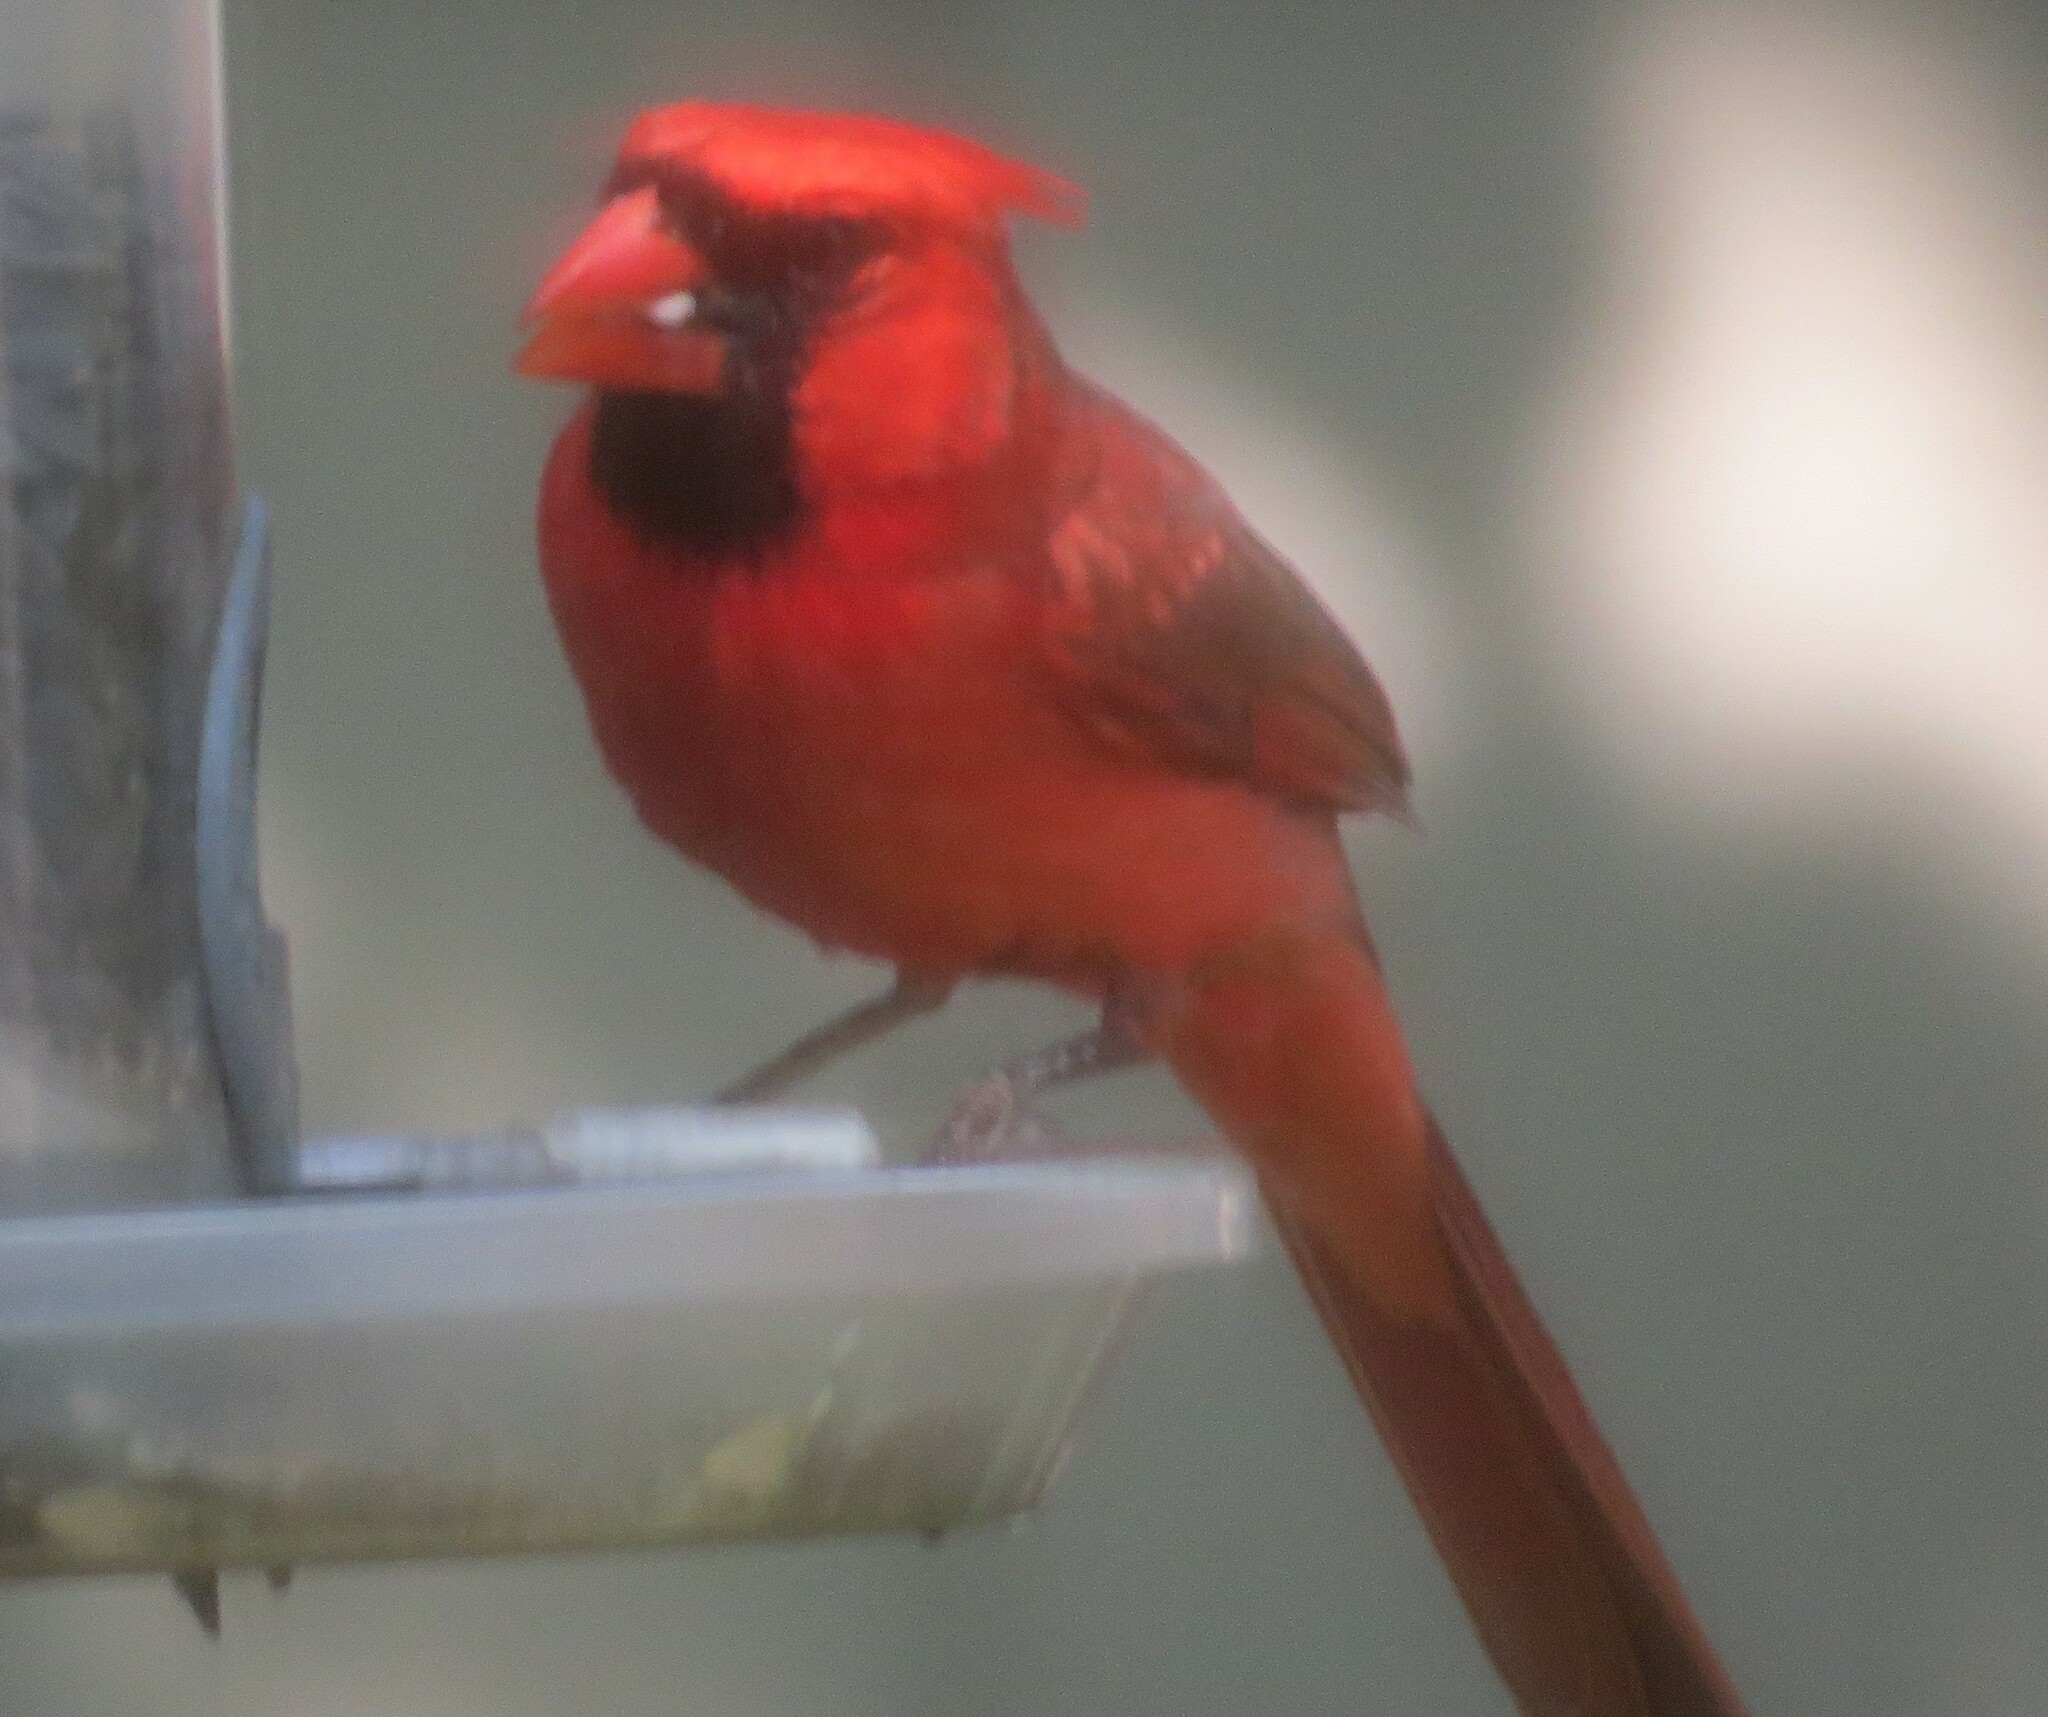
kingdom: Animalia
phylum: Chordata
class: Aves
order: Passeriformes
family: Cardinalidae
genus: Cardinalis
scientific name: Cardinalis cardinalis
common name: Northern cardinal
